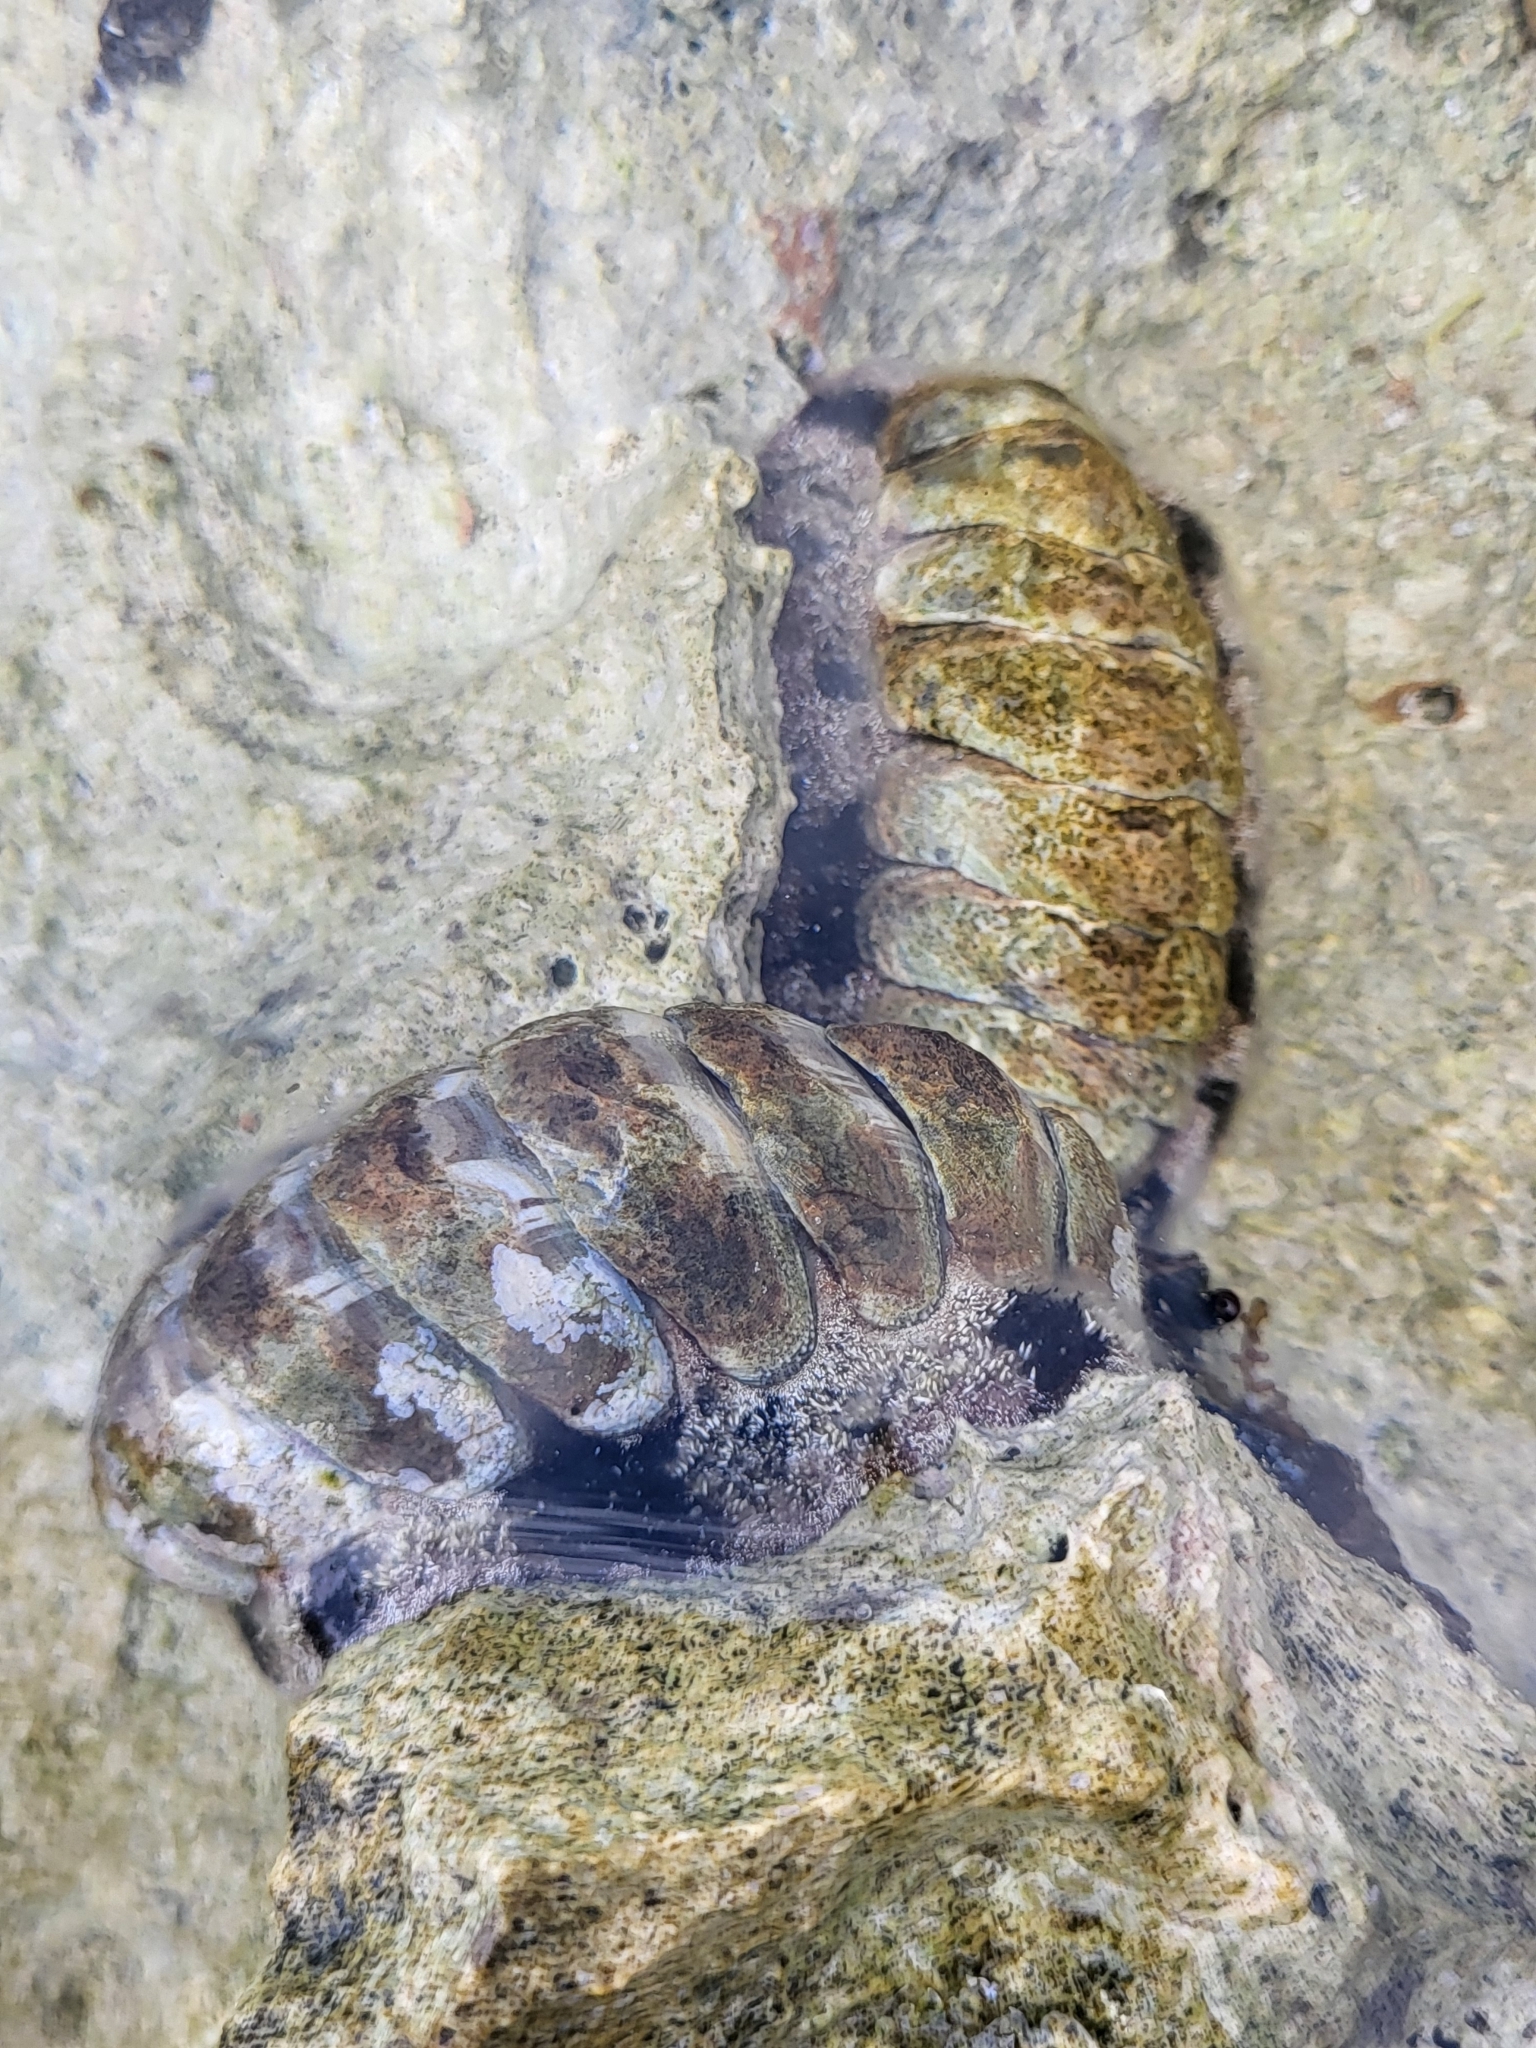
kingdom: Animalia
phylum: Mollusca
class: Polyplacophora
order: Chitonida
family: Chitonidae
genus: Acanthopleura
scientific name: Acanthopleura granulata
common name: West indian fuzzy chiton
